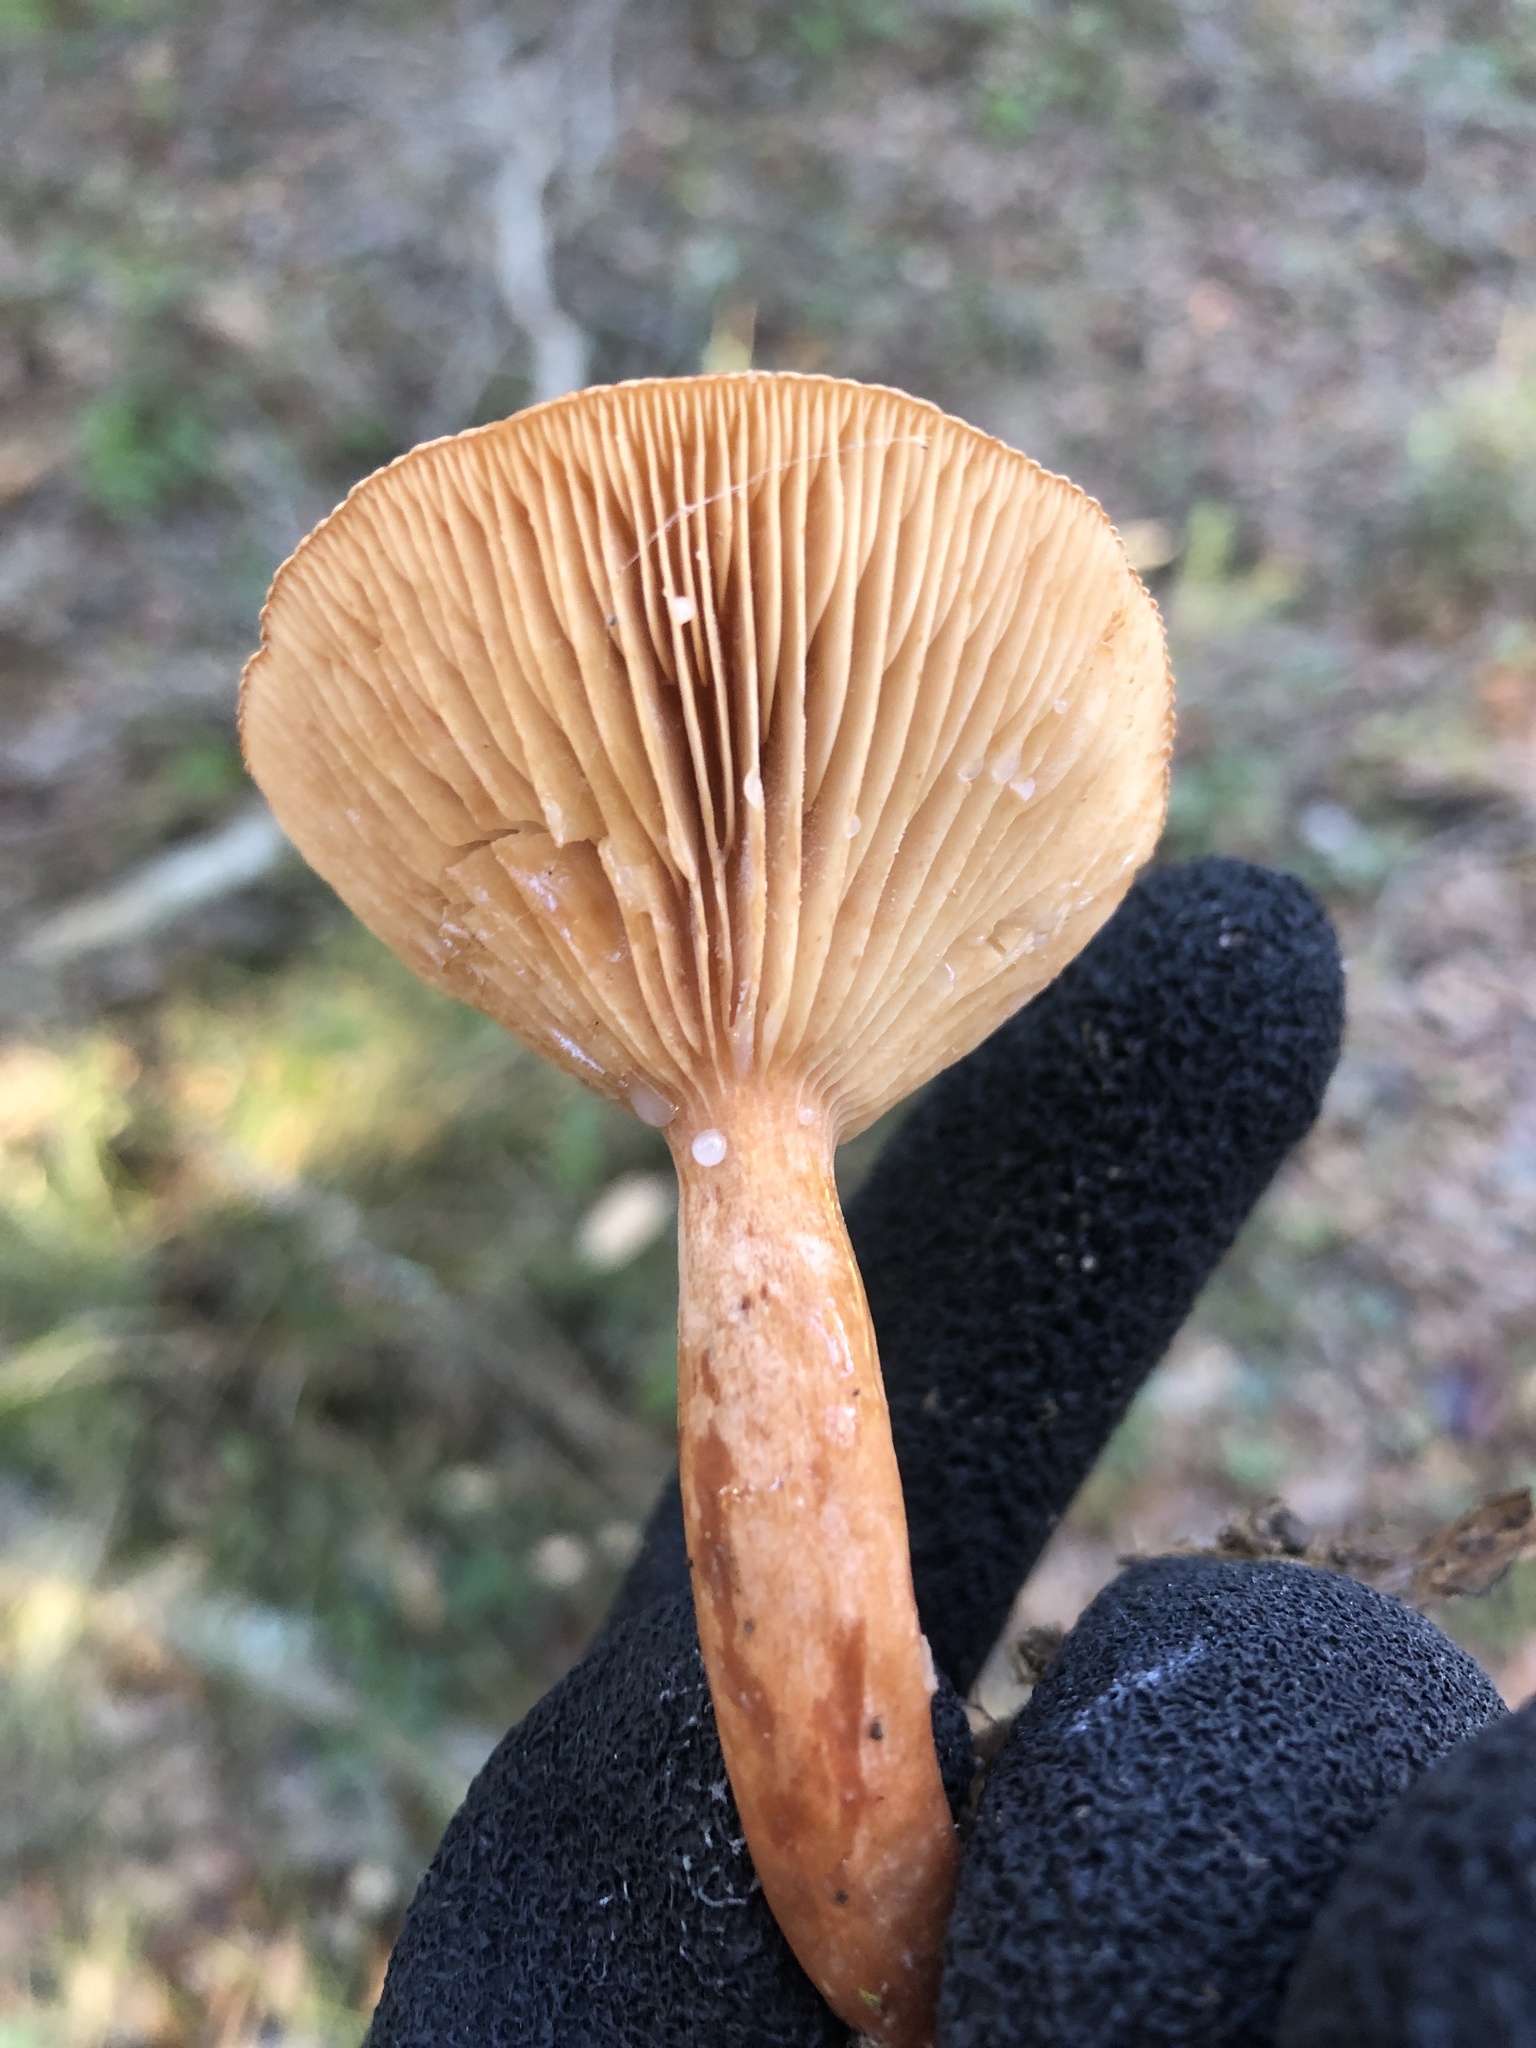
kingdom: Fungi
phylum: Basidiomycota
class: Agaricomycetes
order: Russulales
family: Russulaceae
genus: Lactarius
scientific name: Lactarius rubidus
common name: Candy cap
